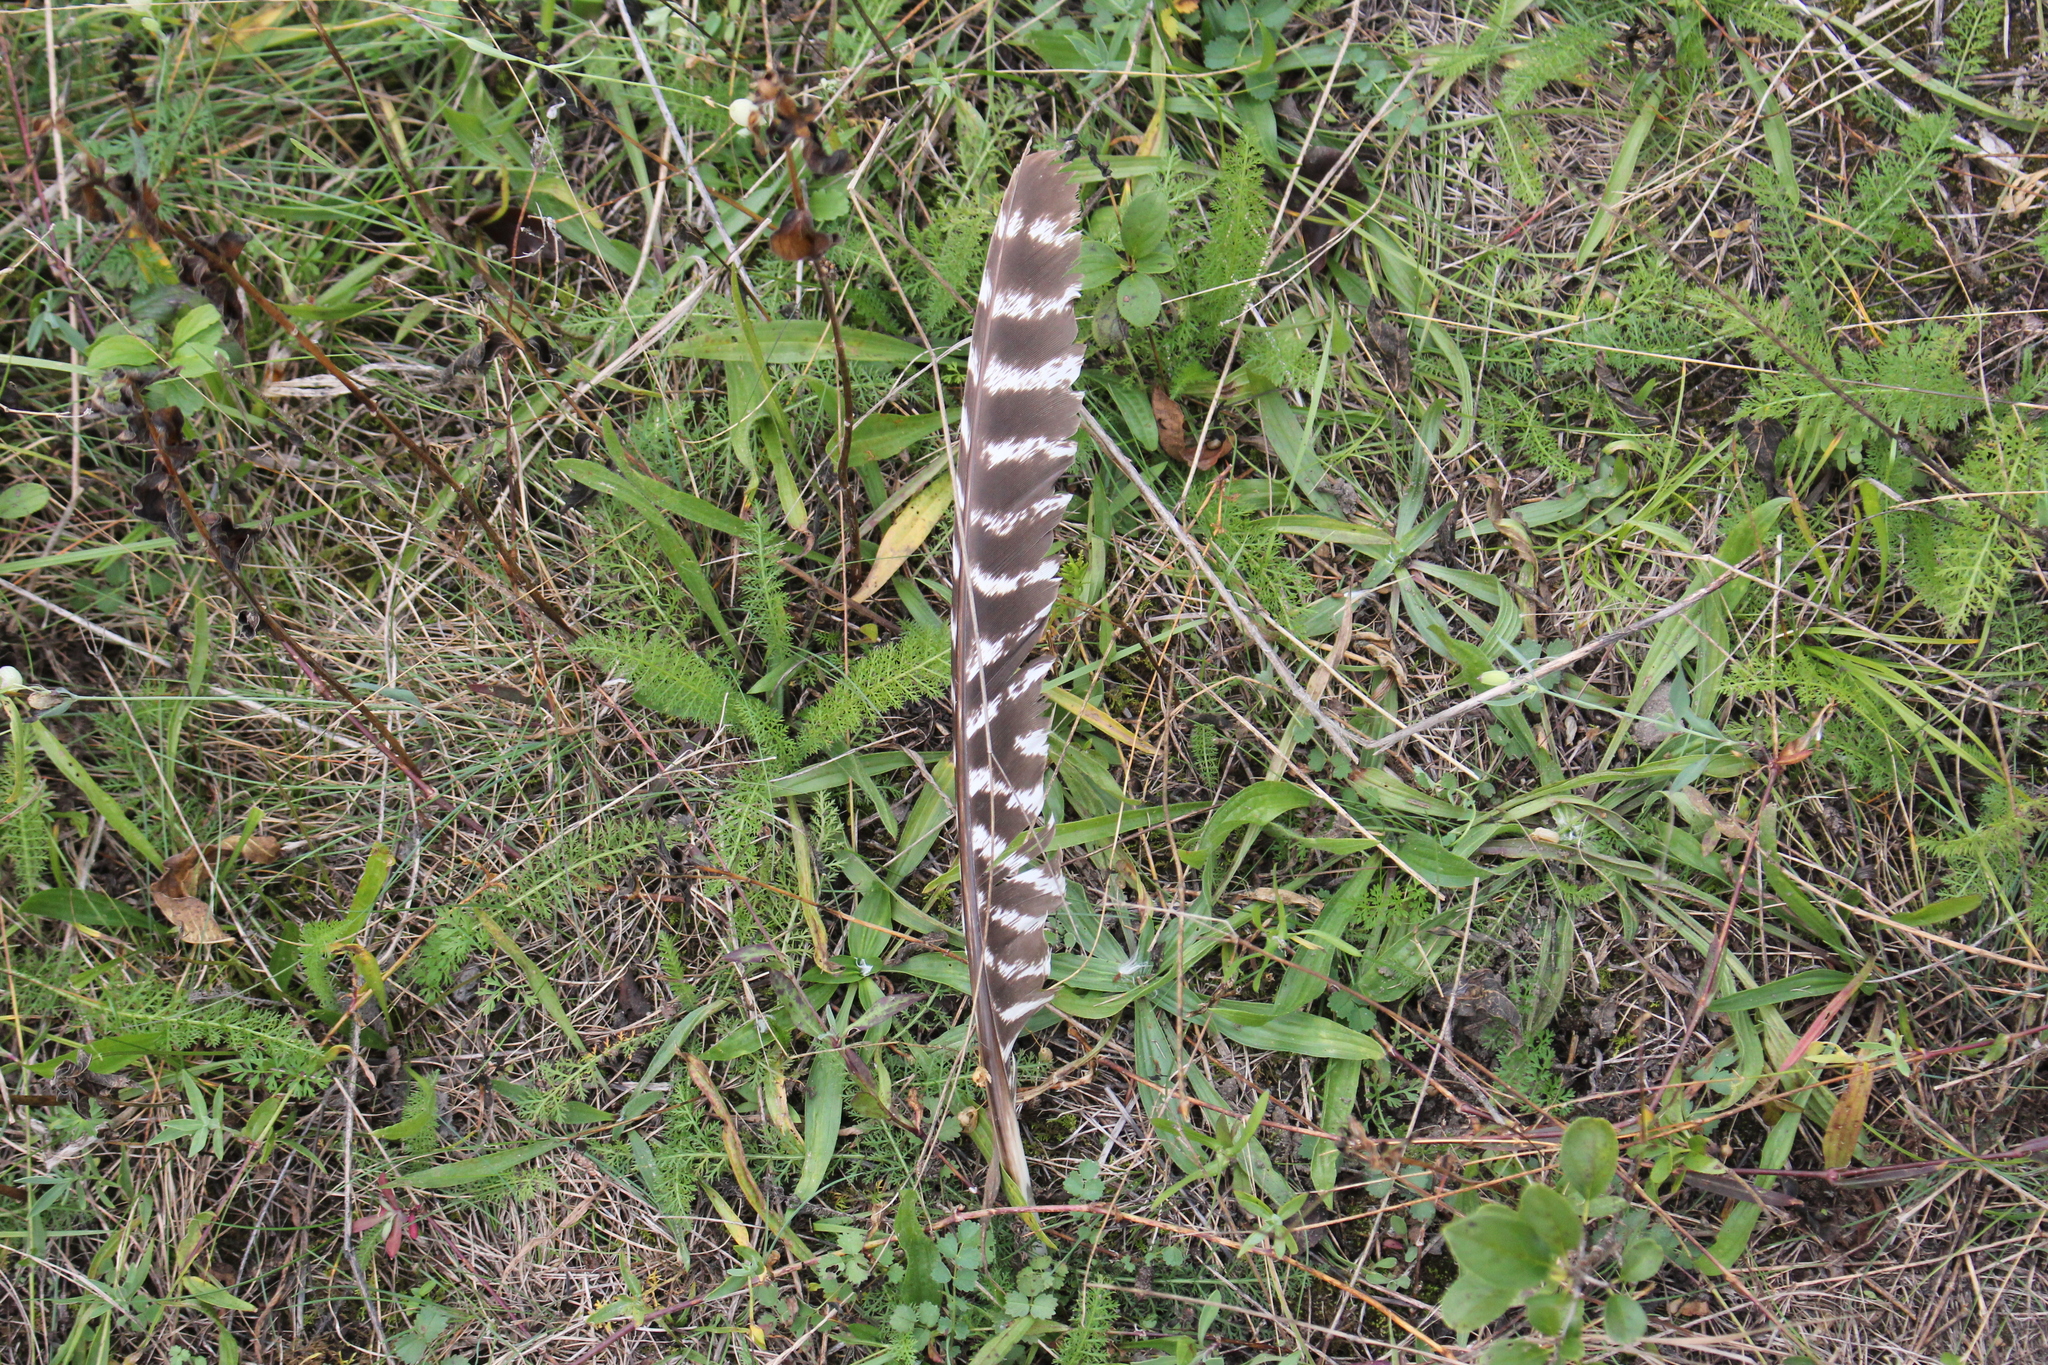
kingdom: Animalia
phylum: Chordata
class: Aves
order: Galliformes
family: Phasianidae
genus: Meleagris
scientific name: Meleagris gallopavo
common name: Wild turkey
